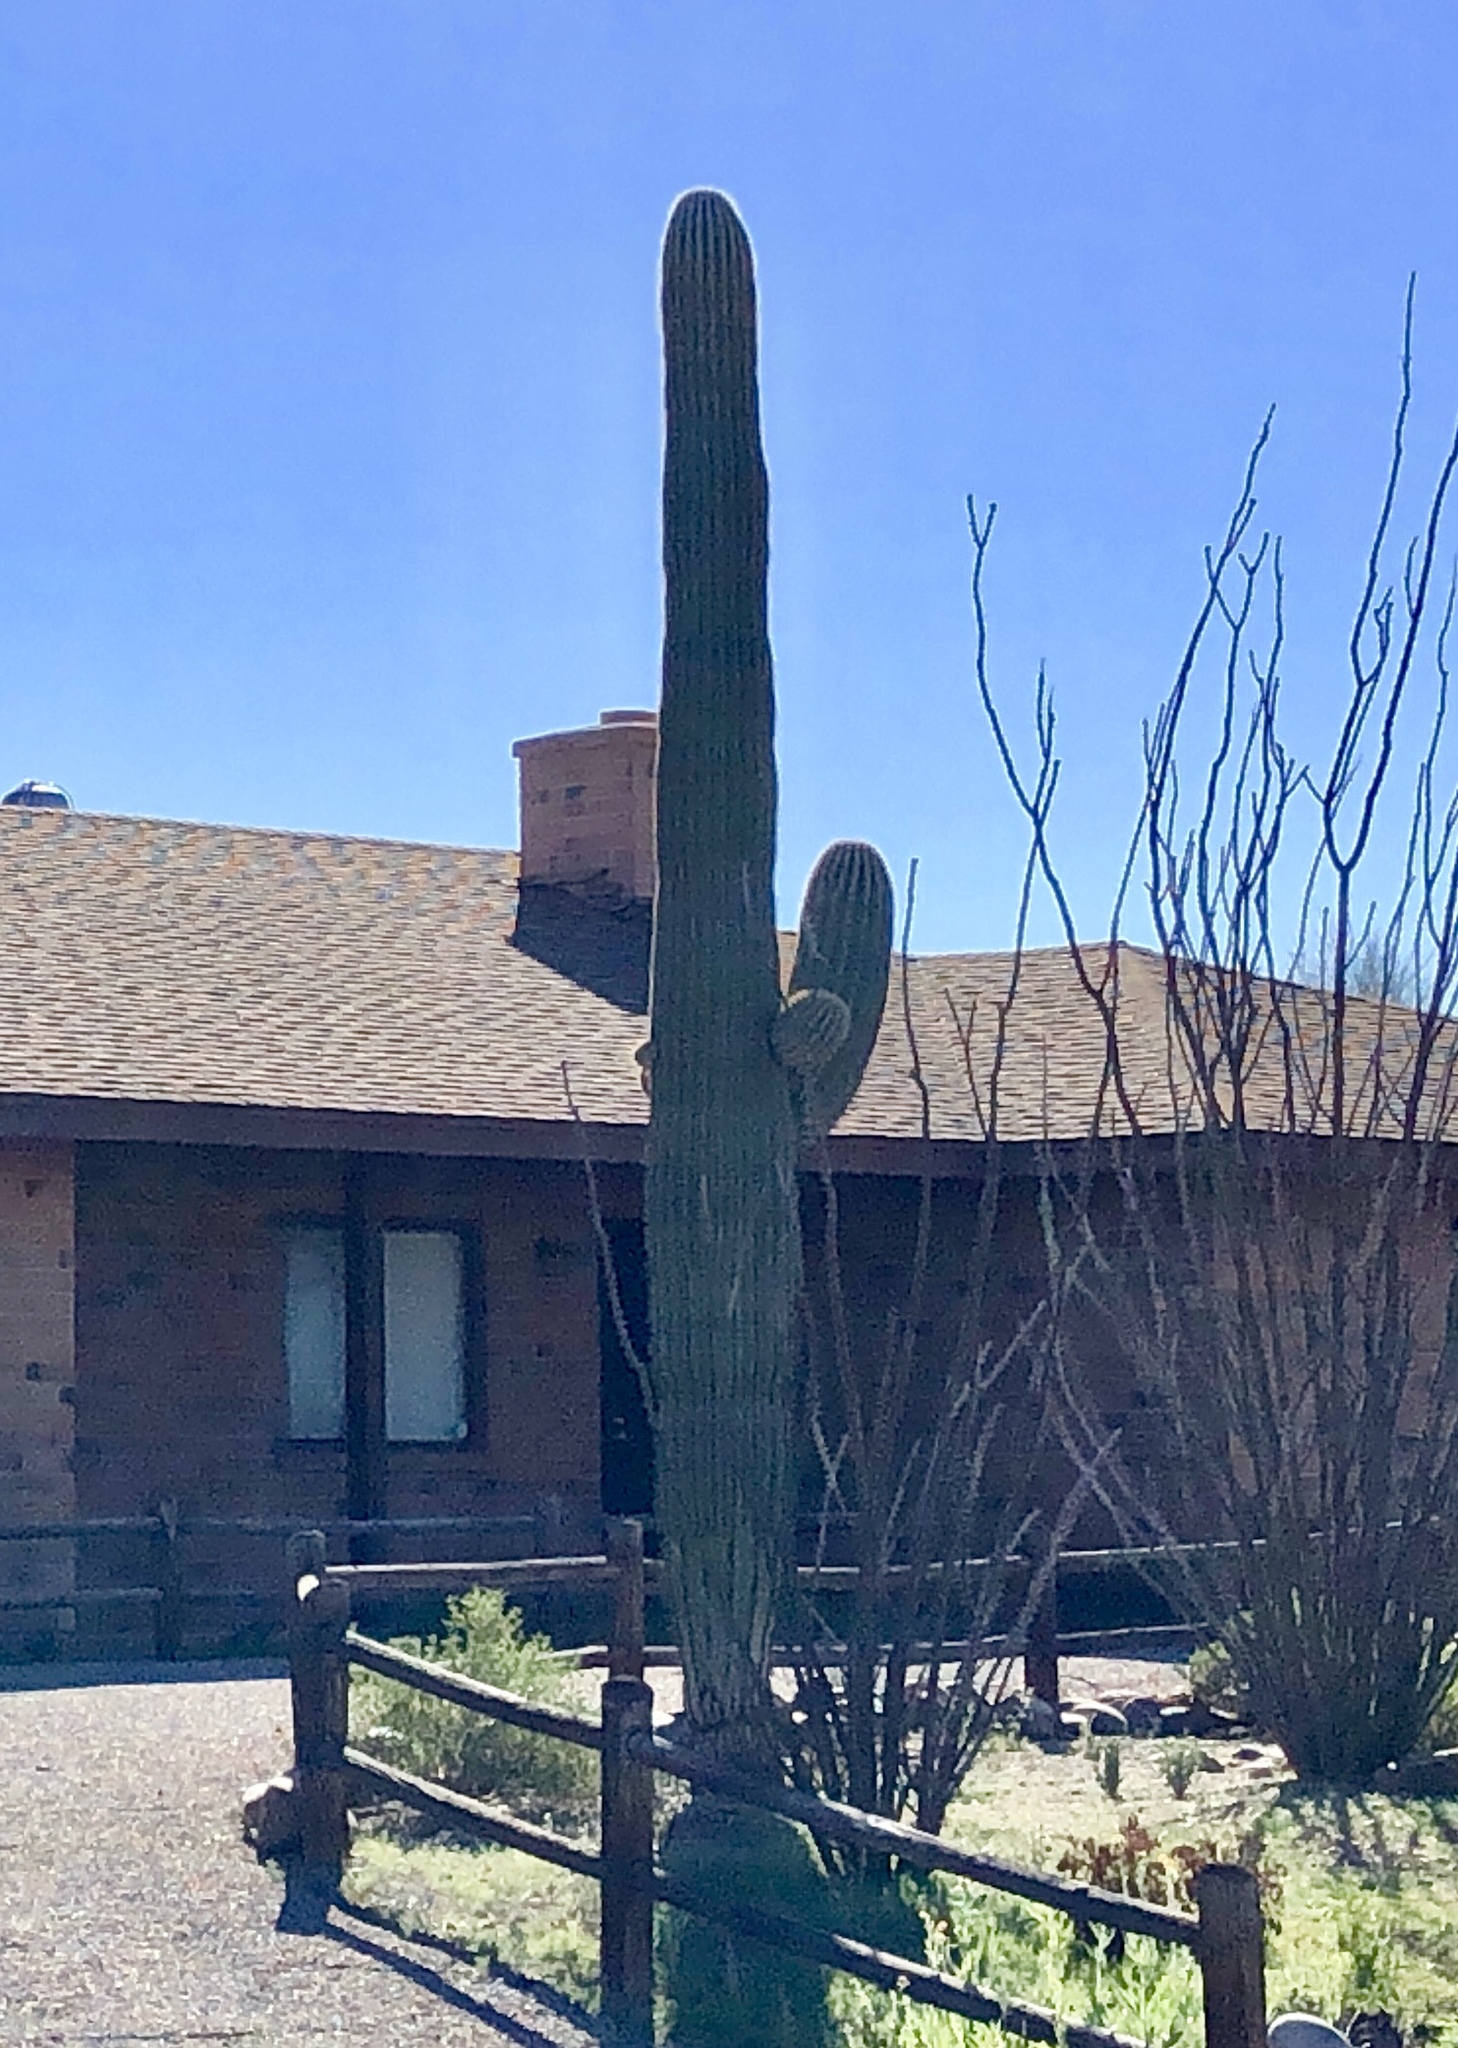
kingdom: Plantae
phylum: Tracheophyta
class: Magnoliopsida
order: Caryophyllales
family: Cactaceae
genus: Carnegiea
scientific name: Carnegiea gigantea
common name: Saguaro
